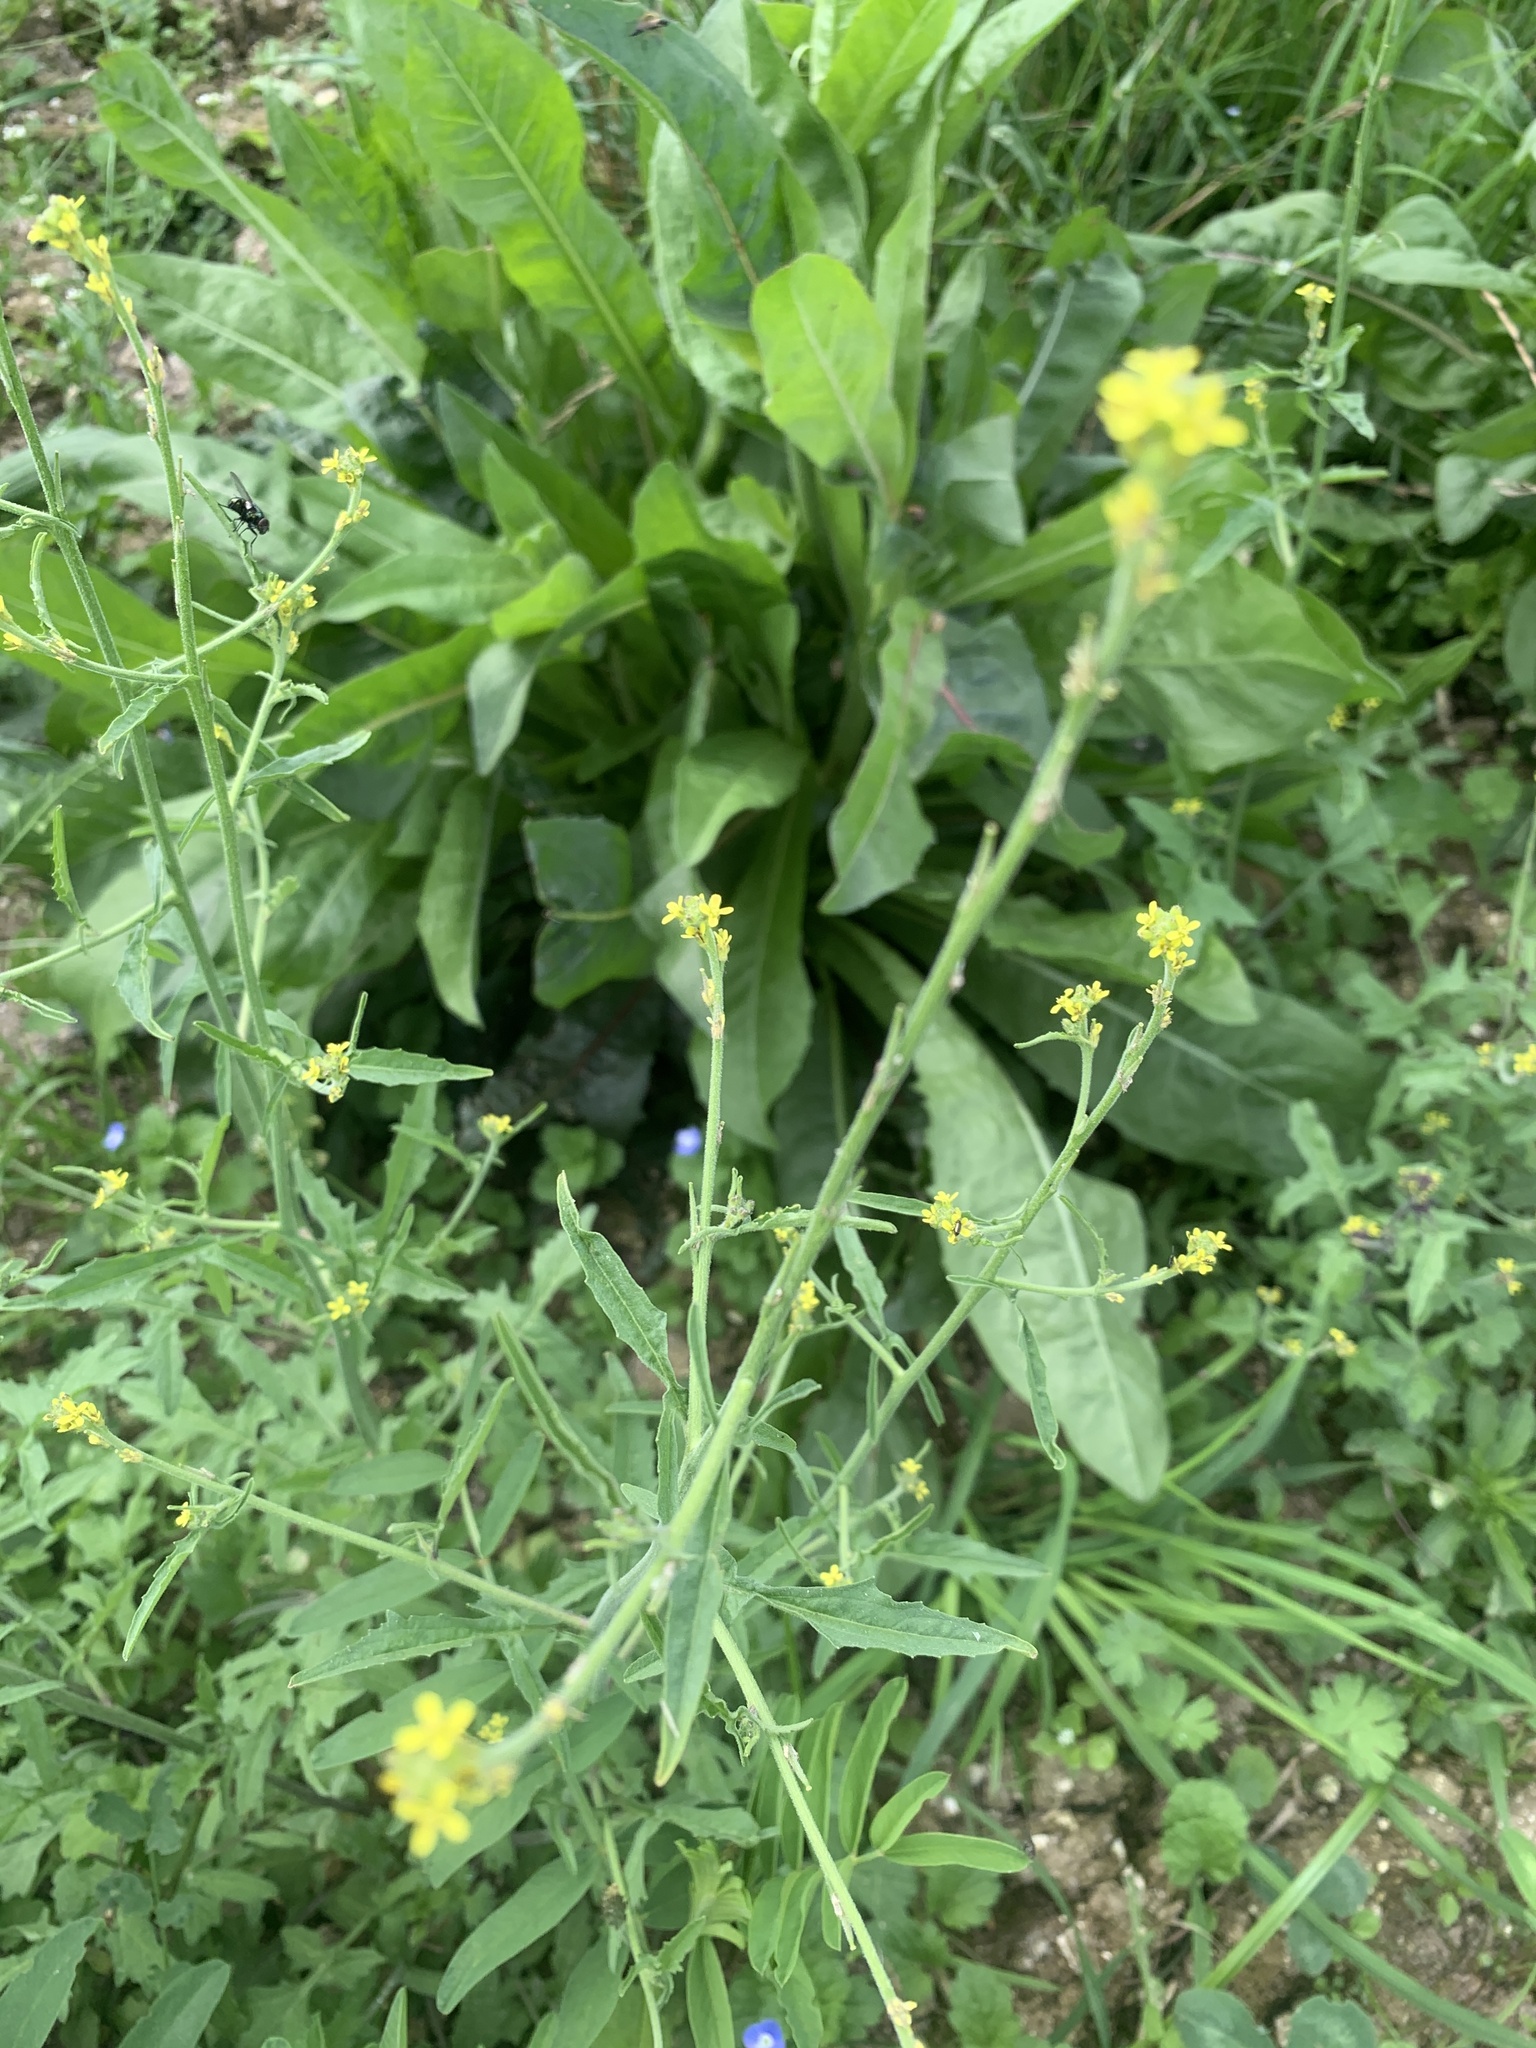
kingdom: Plantae
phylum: Tracheophyta
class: Magnoliopsida
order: Brassicales
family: Brassicaceae
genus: Sisymbrium
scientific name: Sisymbrium officinale
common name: Hedge mustard
